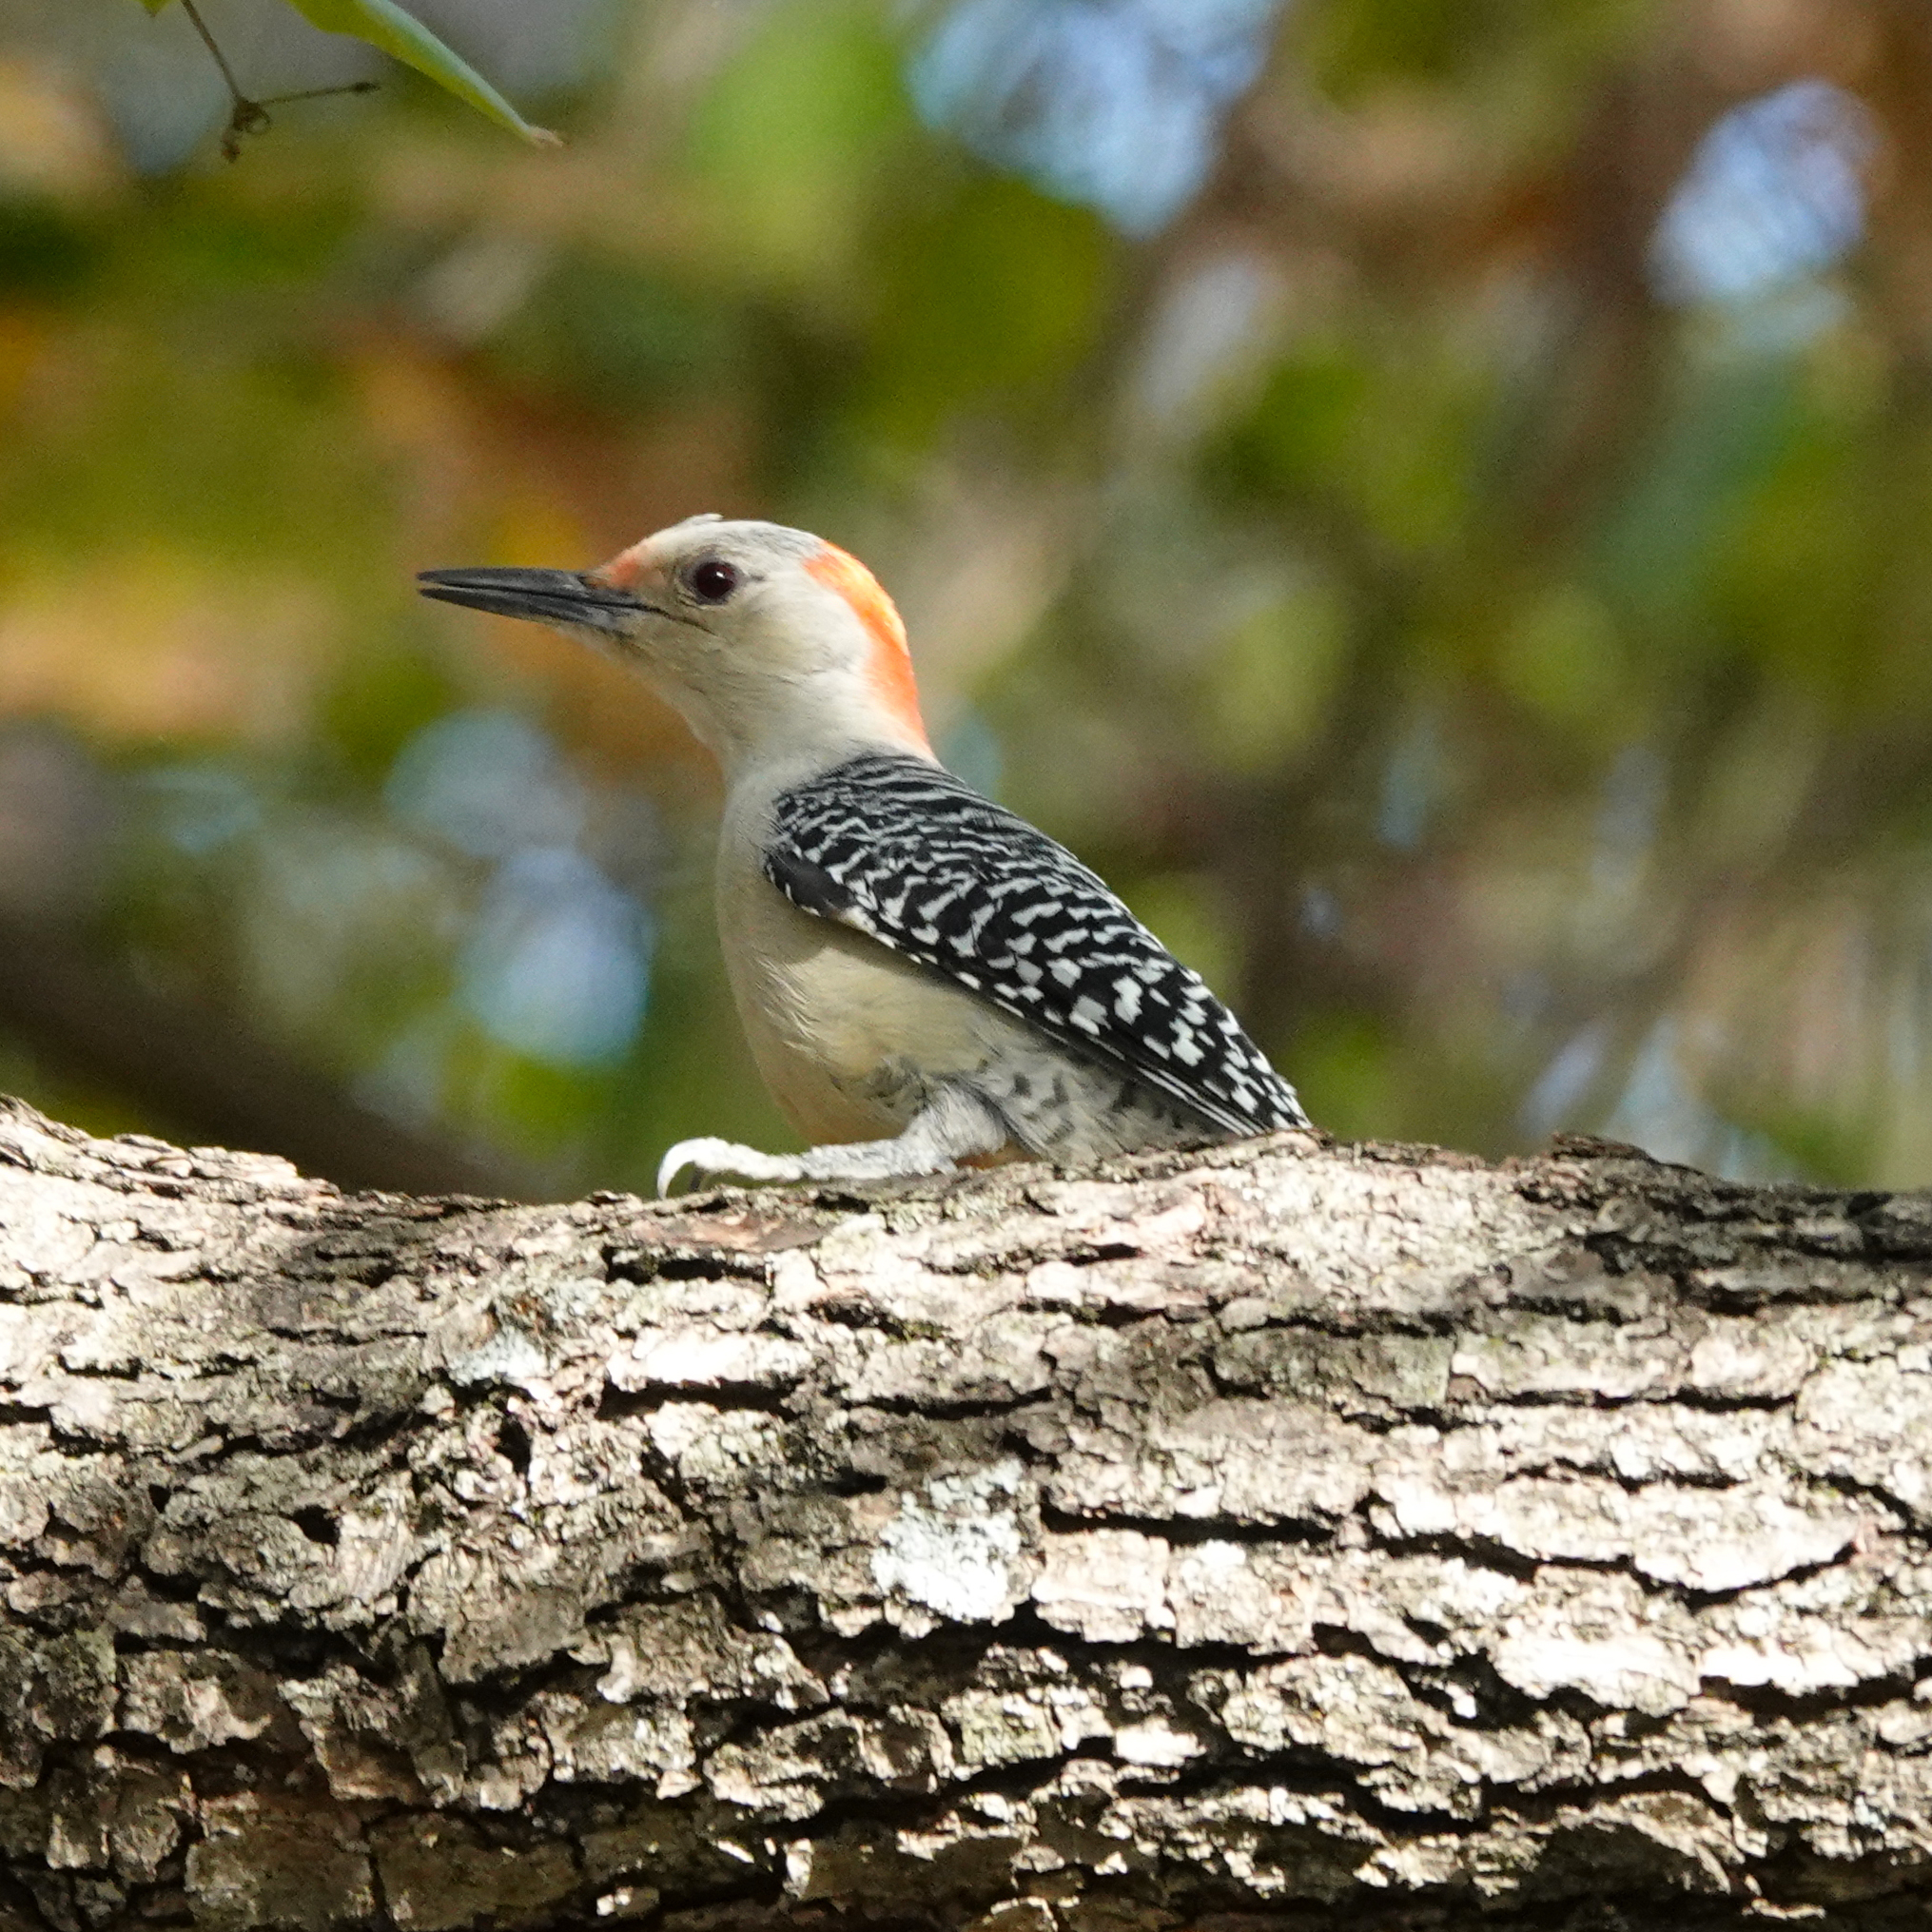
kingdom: Animalia
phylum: Chordata
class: Aves
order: Piciformes
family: Picidae
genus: Melanerpes
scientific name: Melanerpes carolinus
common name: Red-bellied woodpecker
